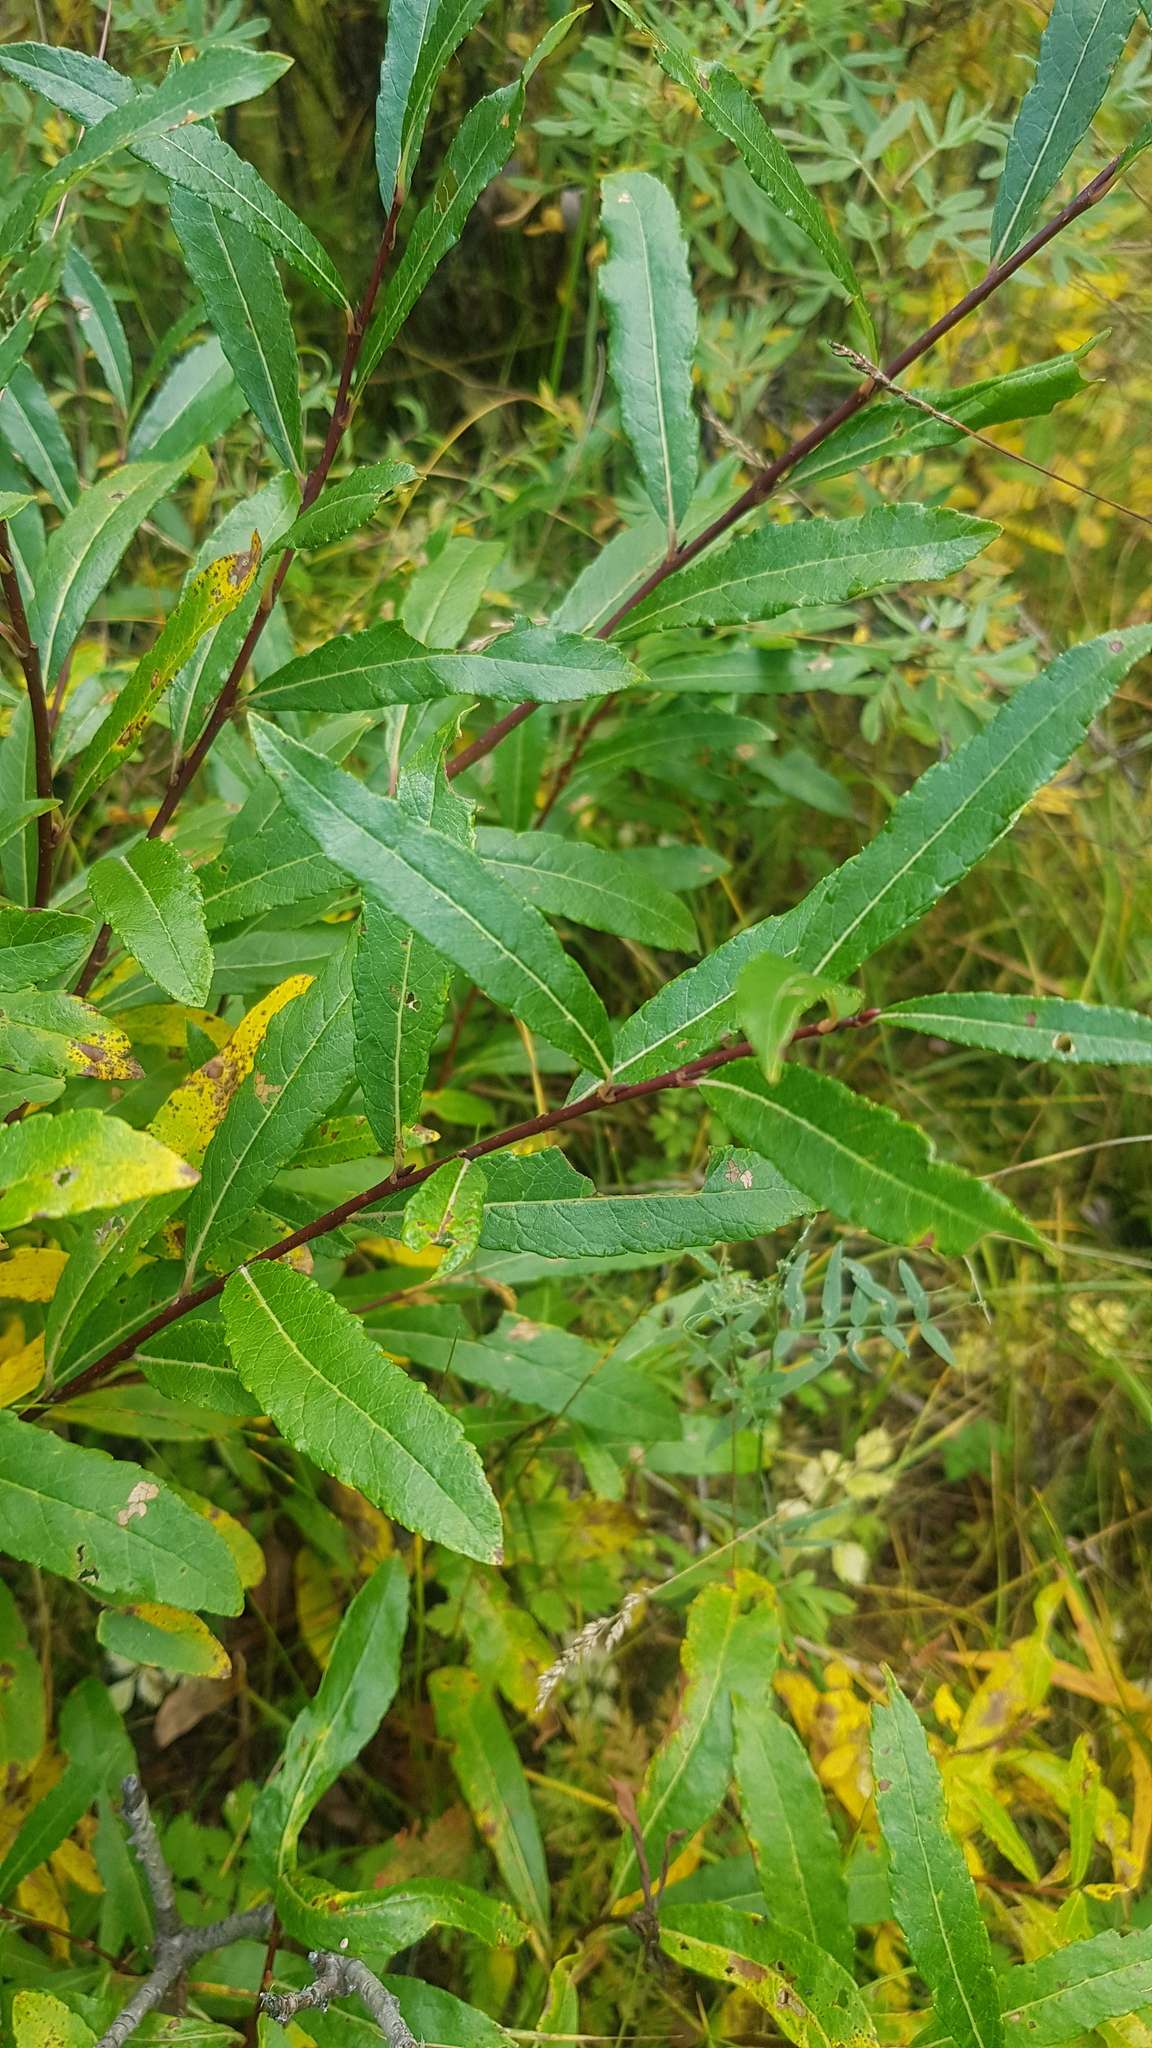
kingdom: Plantae
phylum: Tracheophyta
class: Magnoliopsida
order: Malpighiales
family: Salicaceae
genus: Salix
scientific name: Salix triandra
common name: Almond willow
